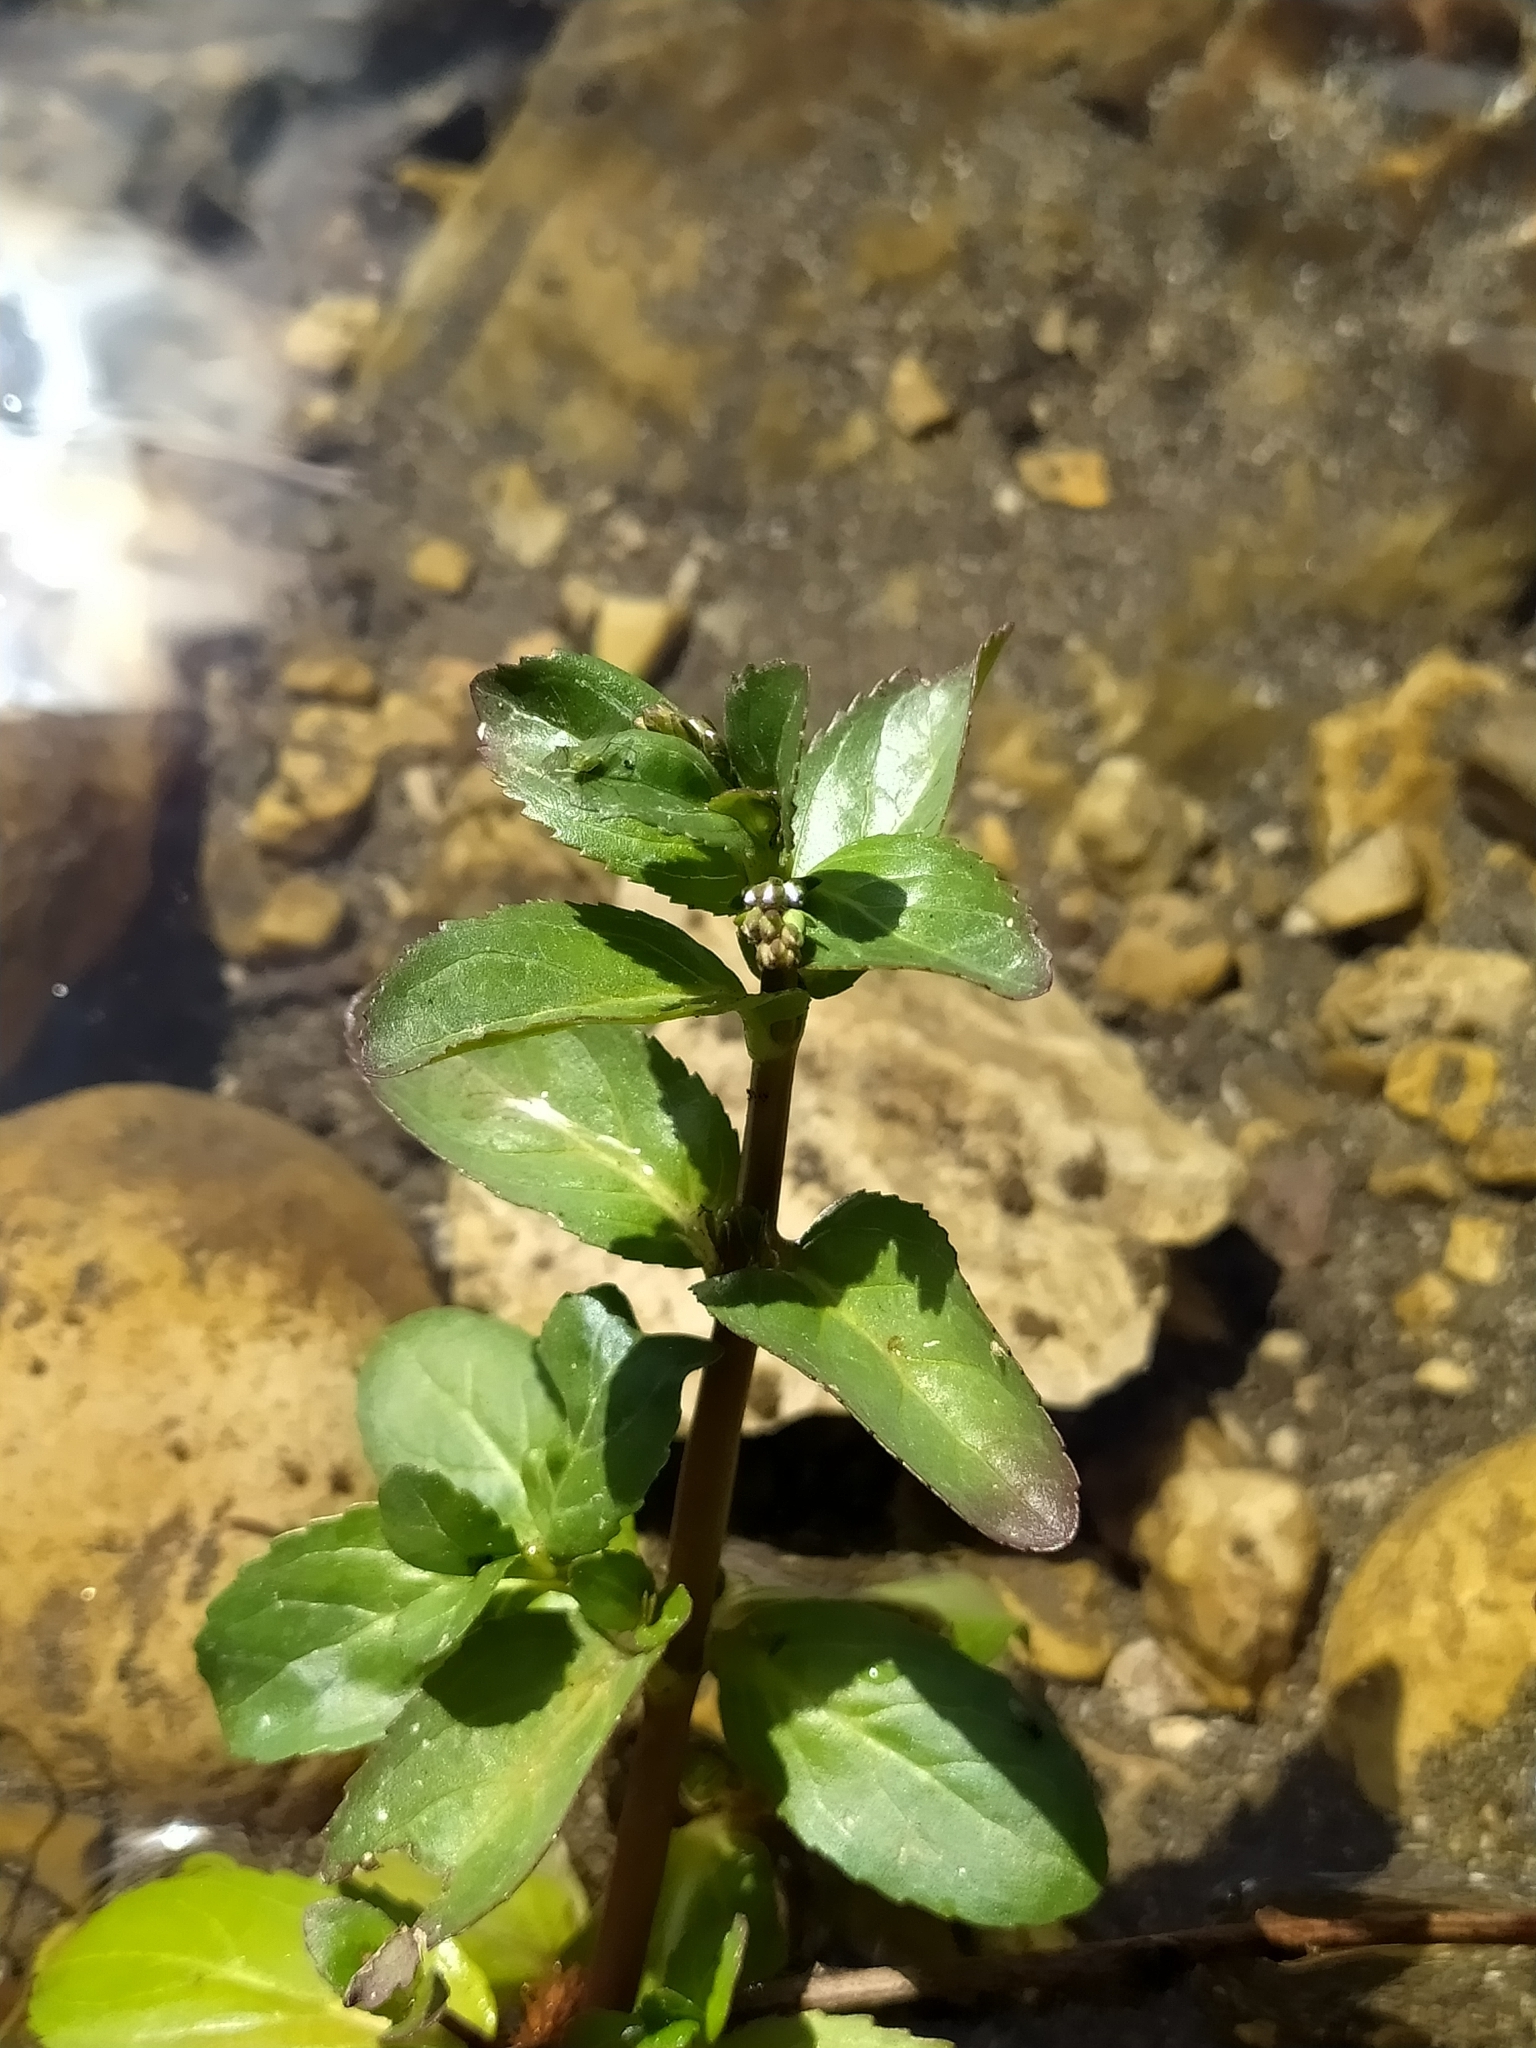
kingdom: Plantae
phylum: Tracheophyta
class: Magnoliopsida
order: Lamiales
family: Plantaginaceae
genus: Veronica
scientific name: Veronica beccabunga
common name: Brooklime
